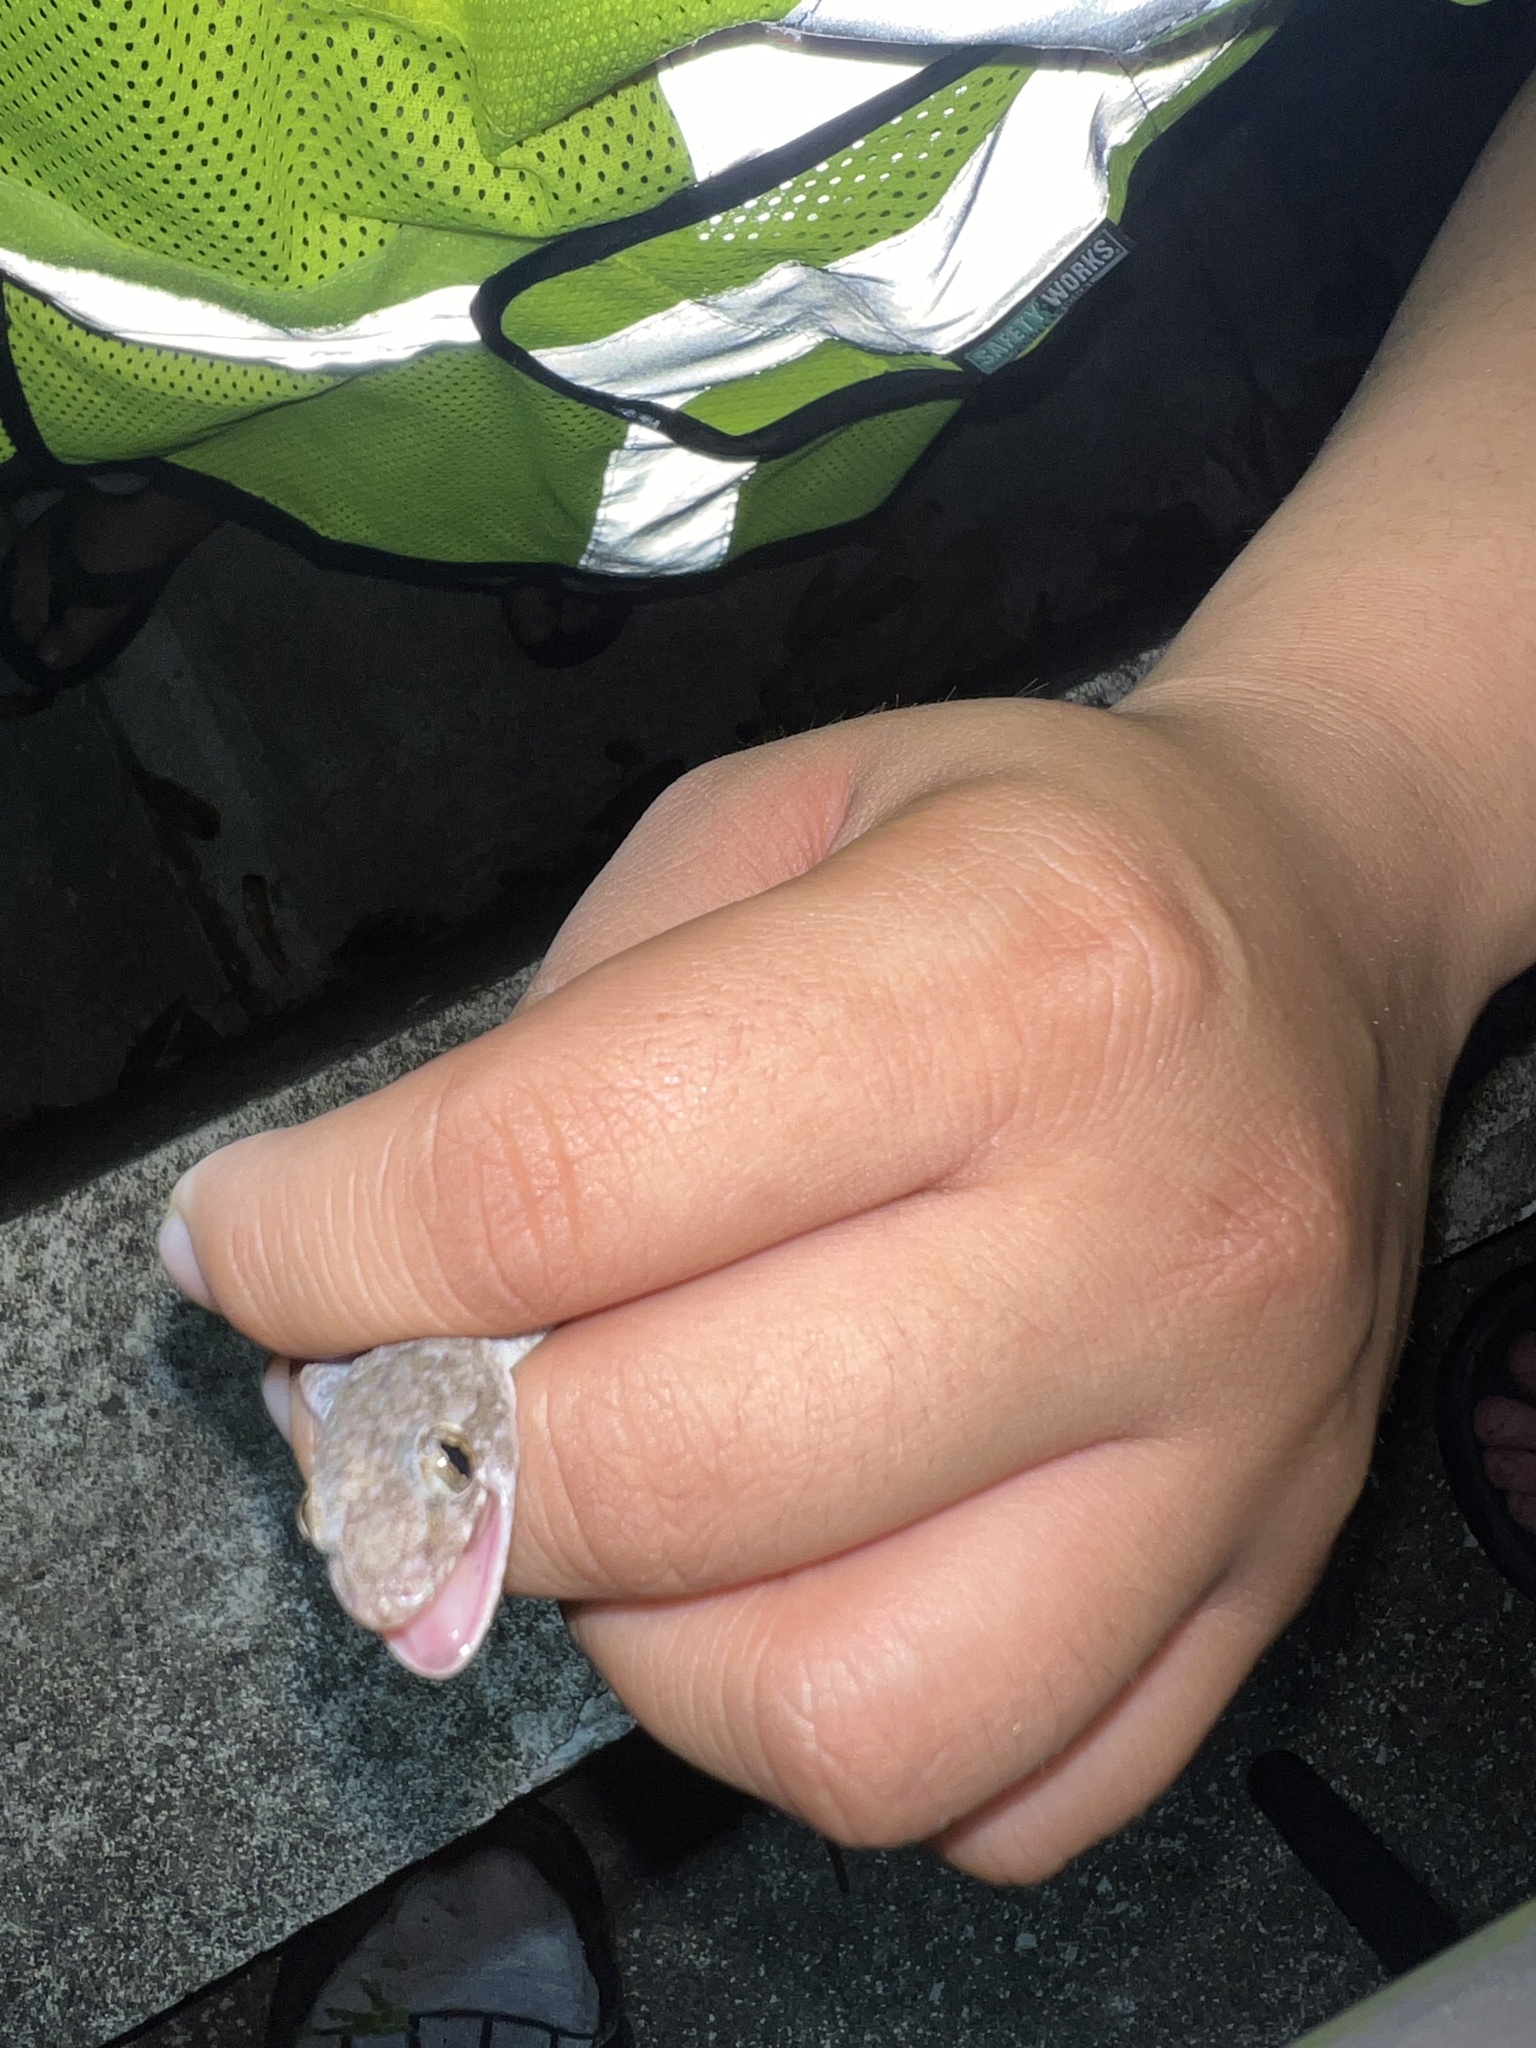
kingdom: Animalia
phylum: Chordata
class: Squamata
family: Gekkonidae
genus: Hemidactylus
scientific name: Hemidactylus mabouia
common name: House gecko
